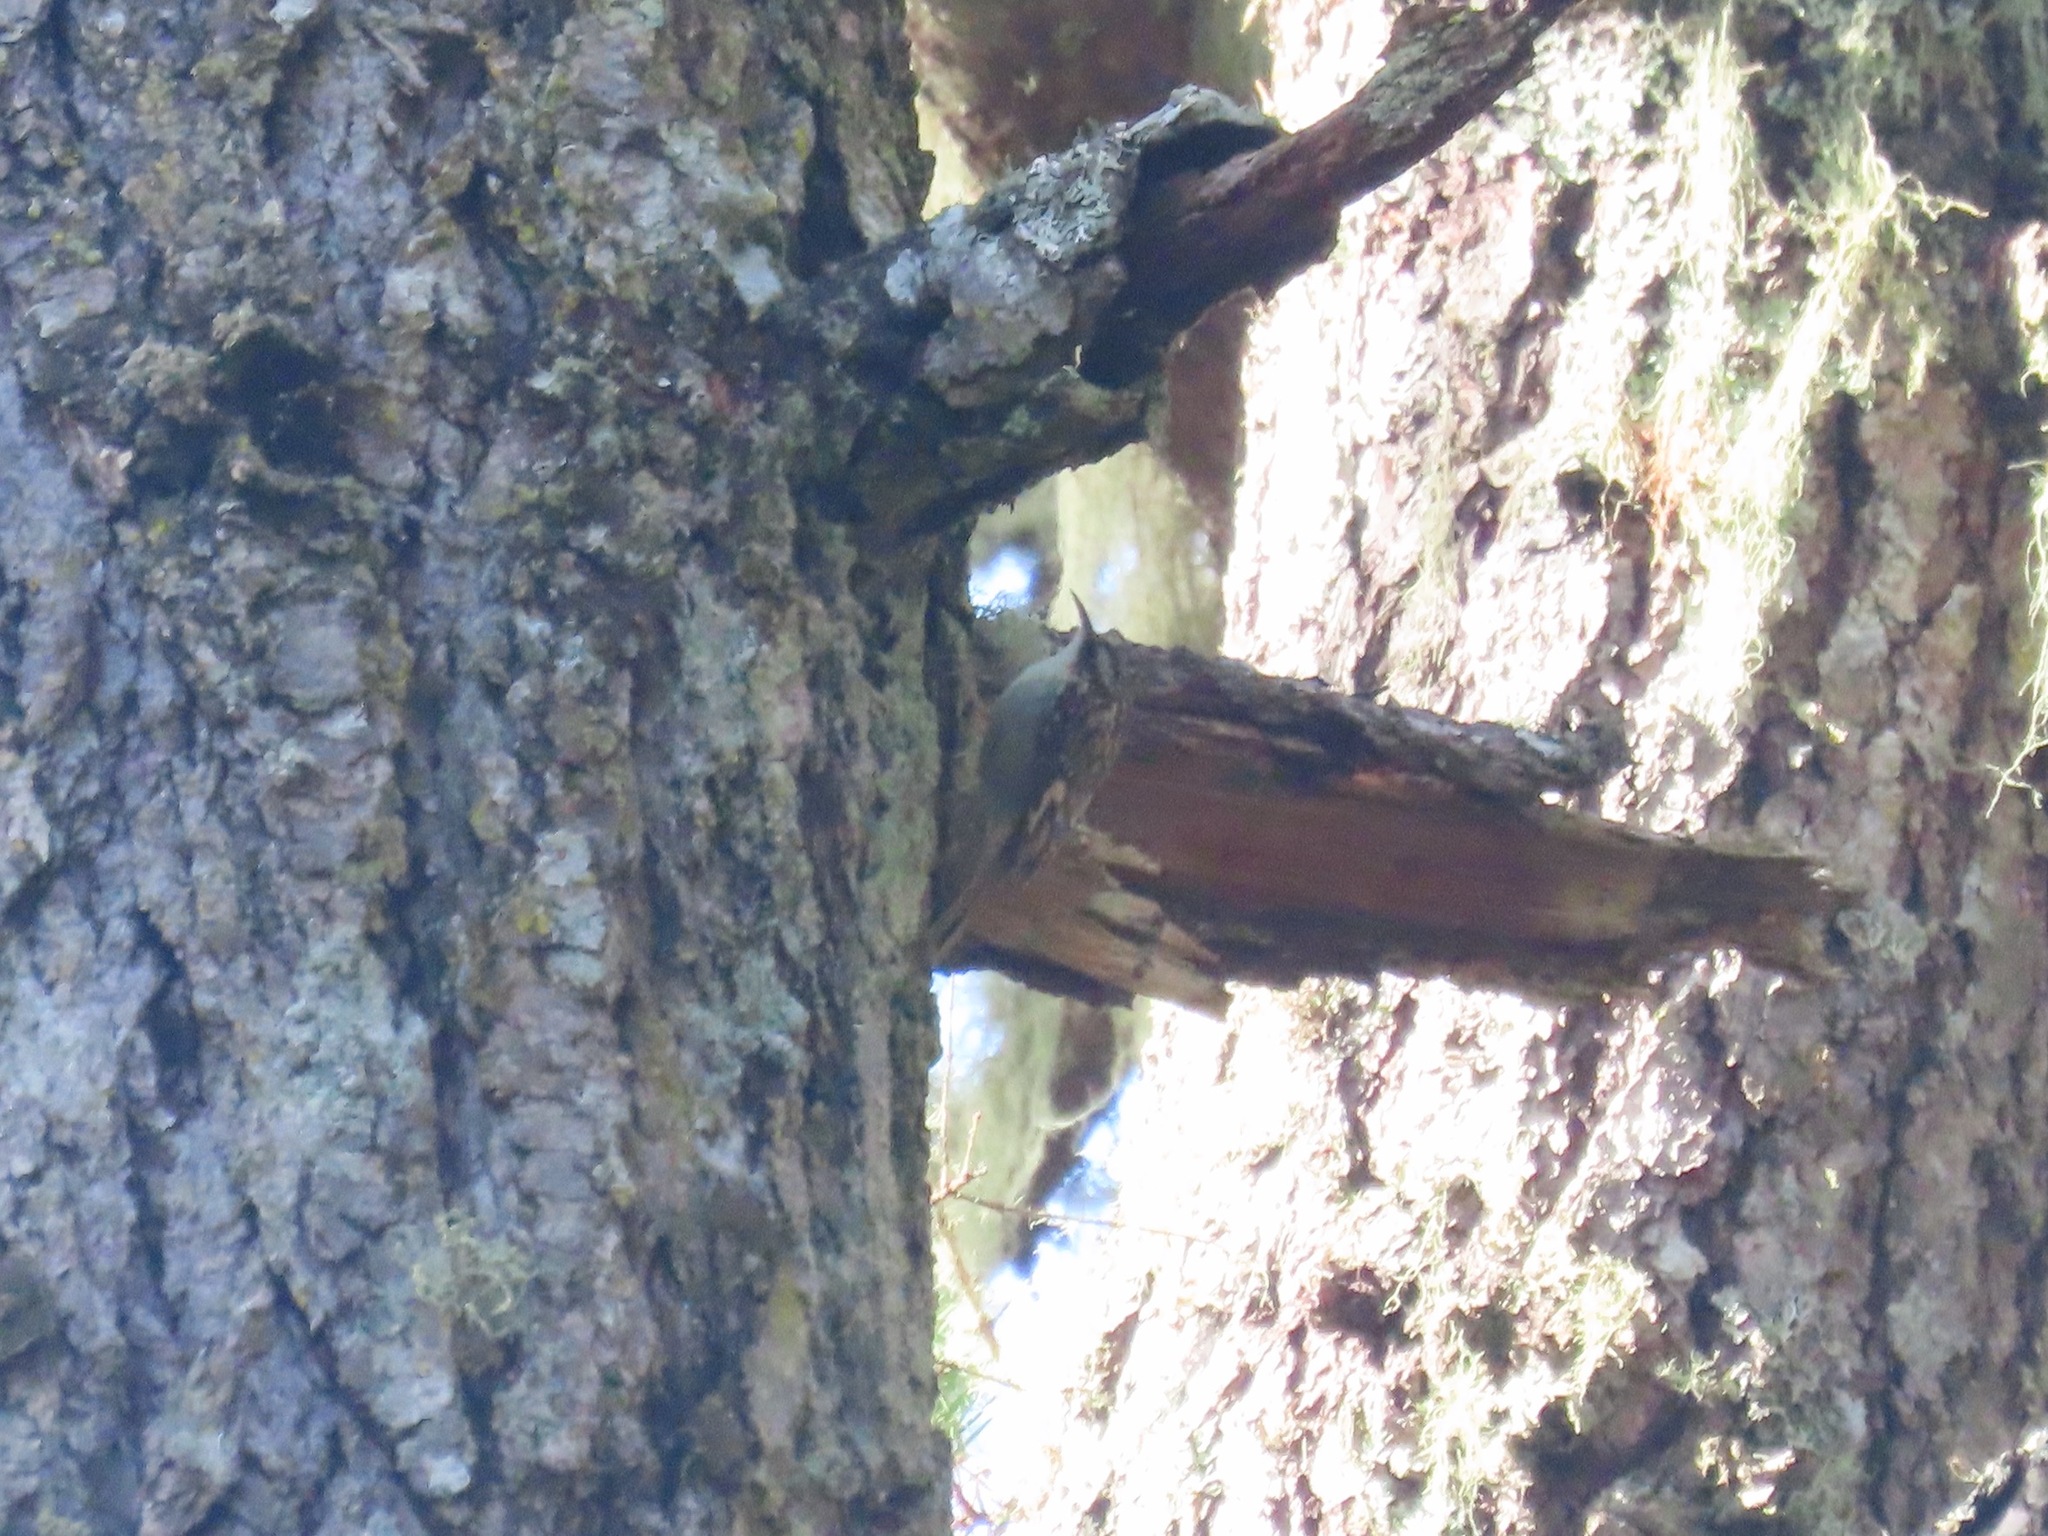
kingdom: Animalia
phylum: Chordata
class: Aves
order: Passeriformes
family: Certhiidae
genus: Certhia
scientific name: Certhia americana
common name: Brown creeper
